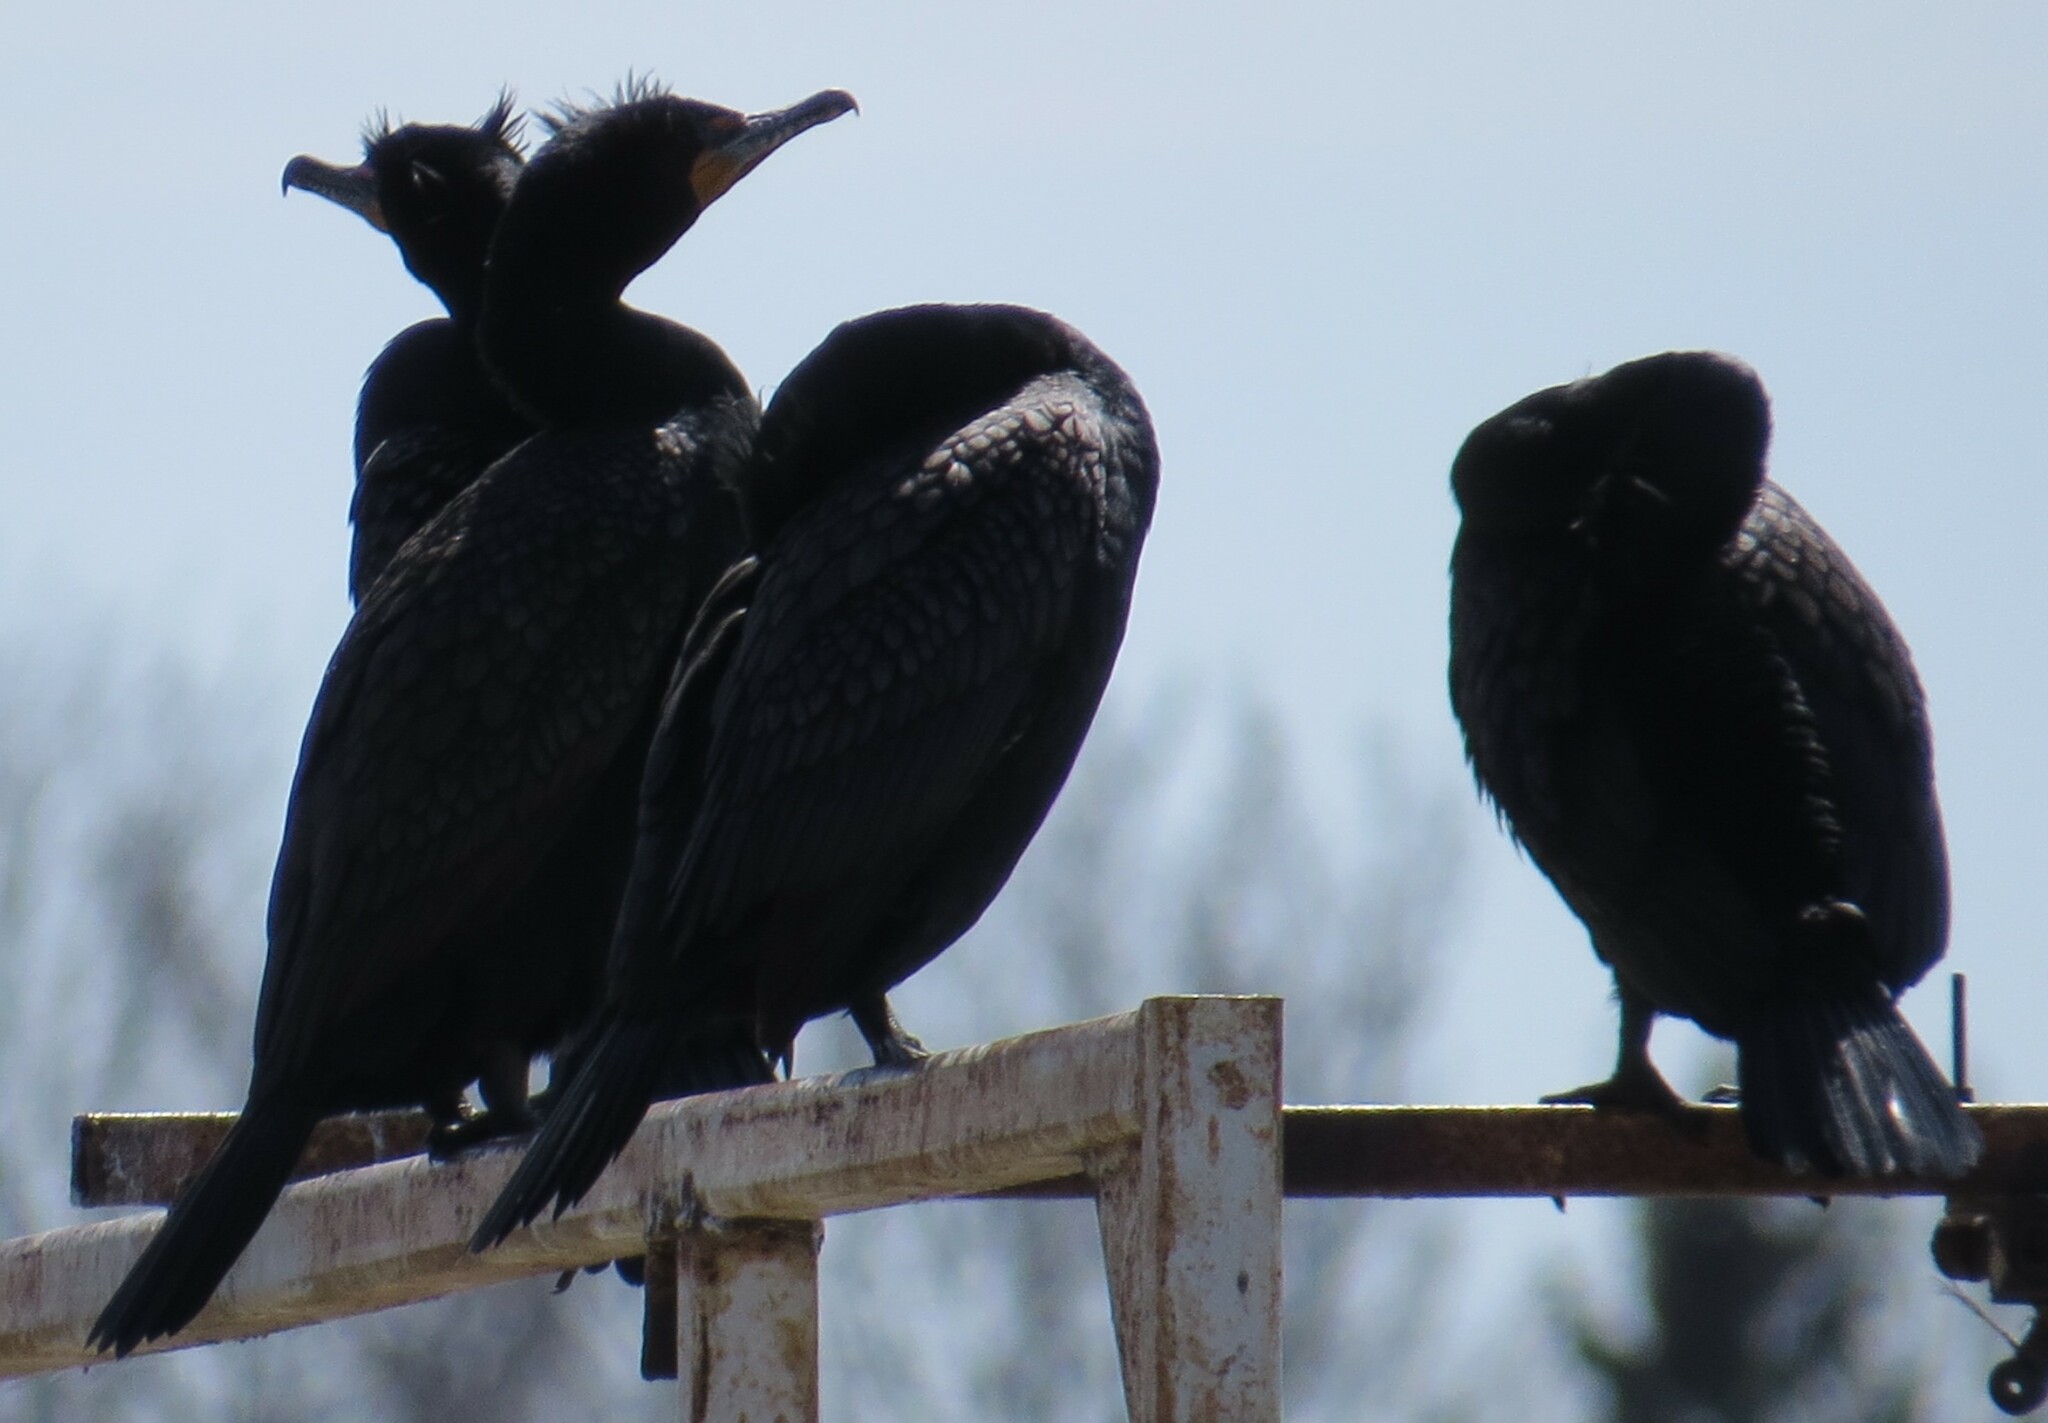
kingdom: Animalia
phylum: Chordata
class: Aves
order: Suliformes
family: Phalacrocoracidae
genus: Phalacrocorax
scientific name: Phalacrocorax auritus
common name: Double-crested cormorant
